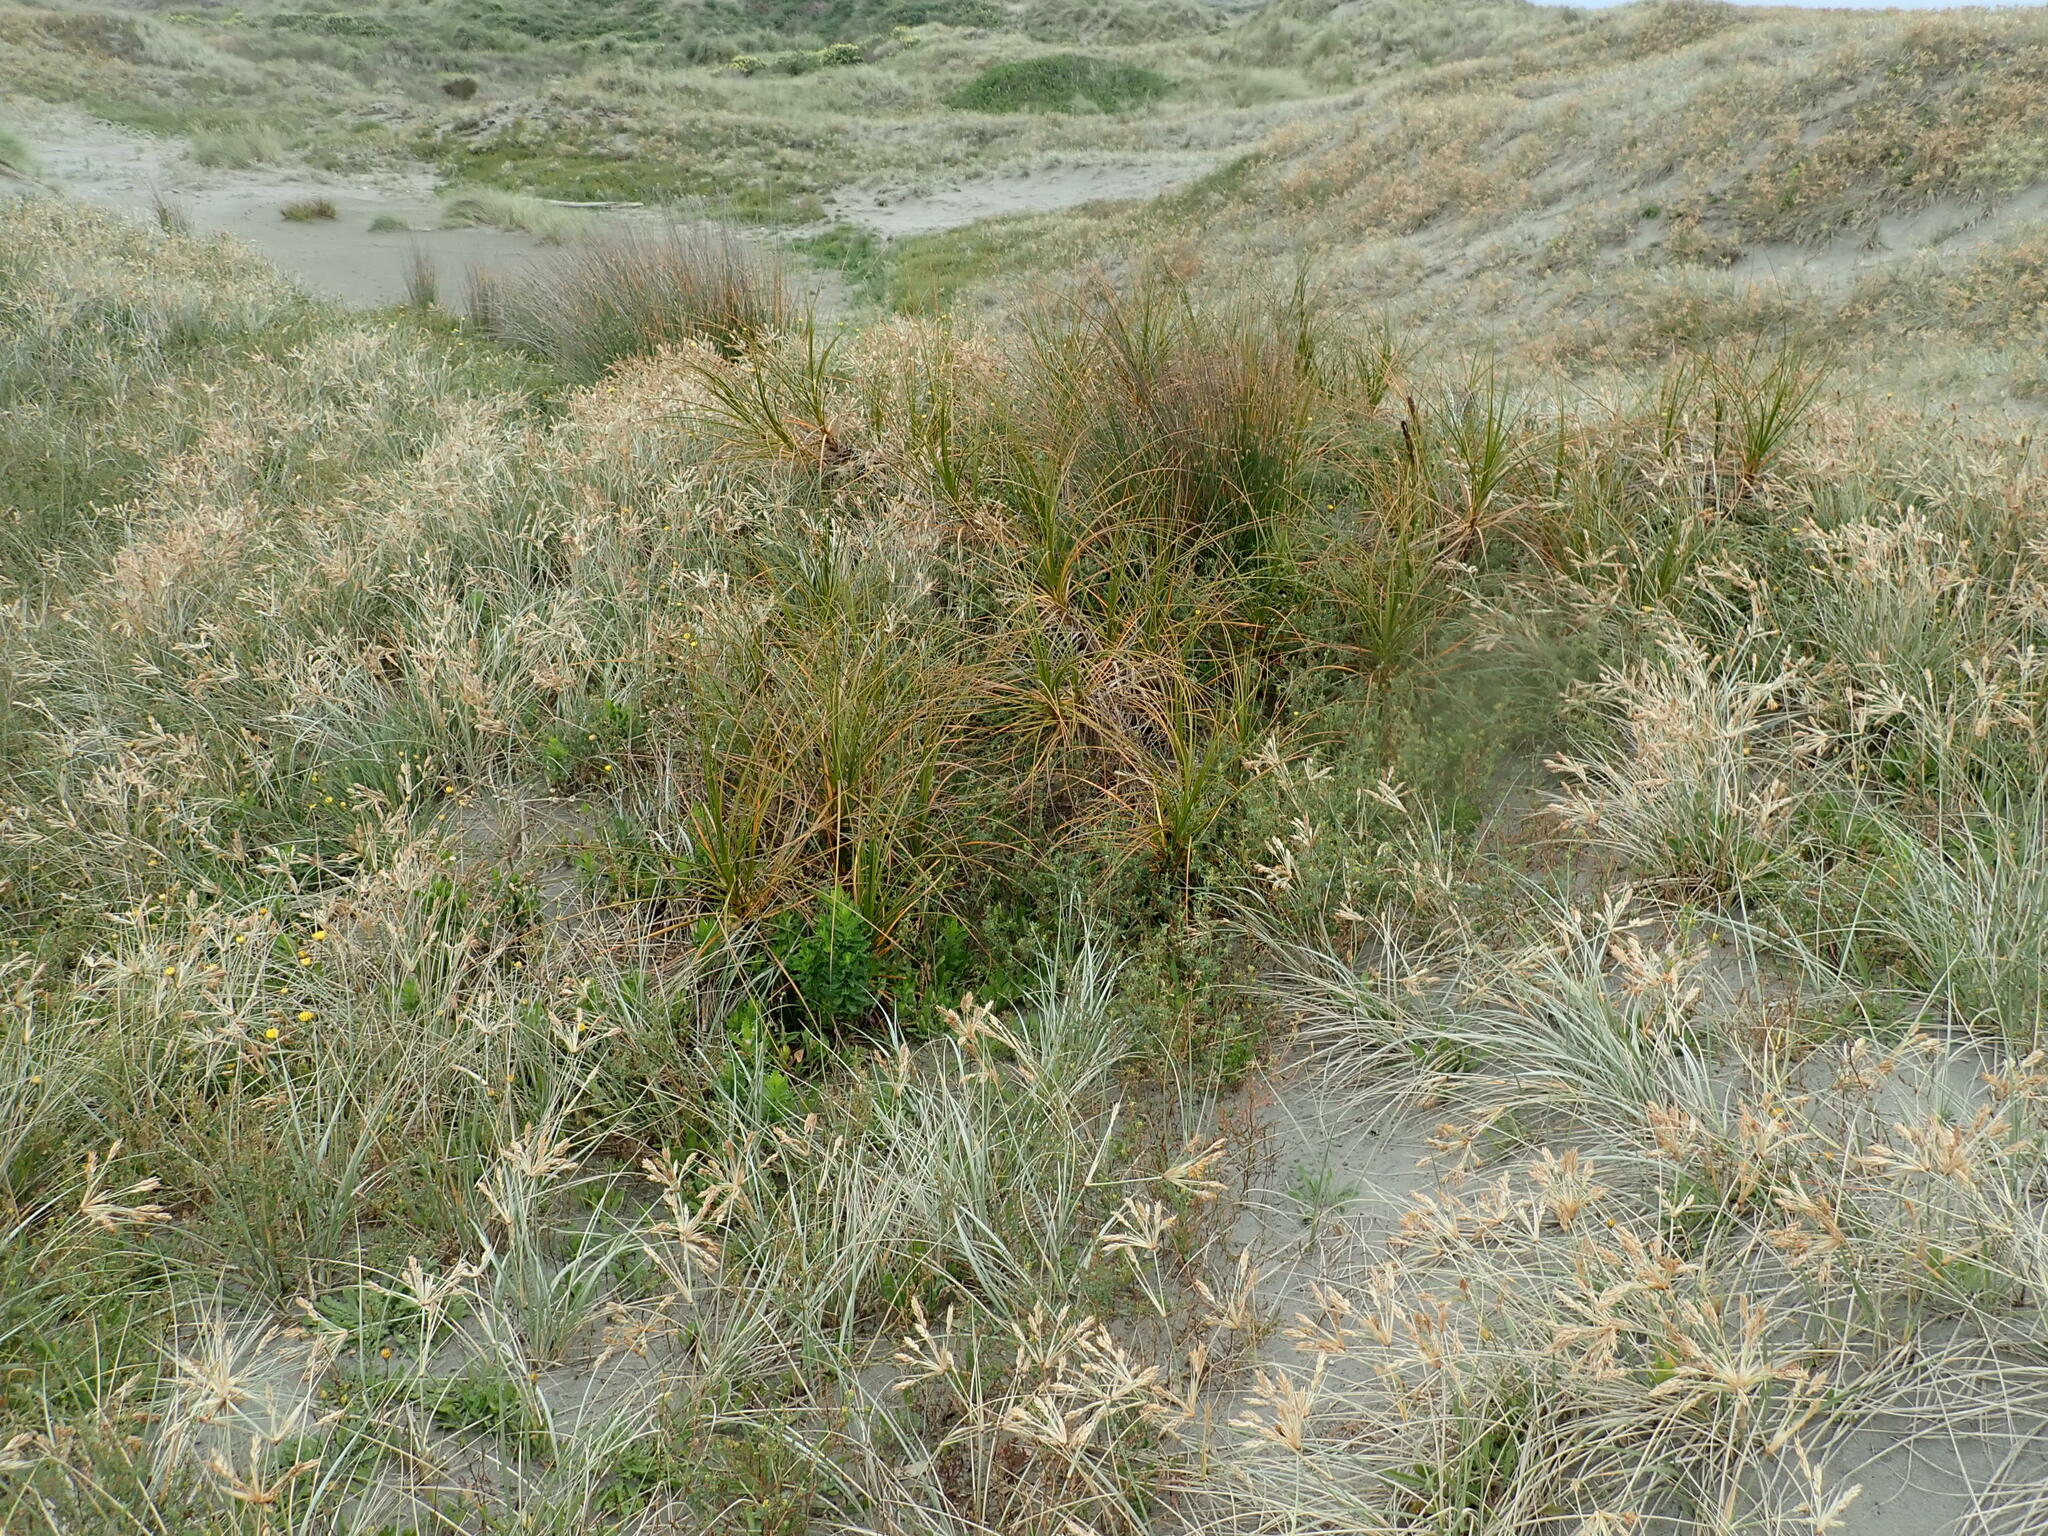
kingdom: Plantae
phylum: Tracheophyta
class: Liliopsida
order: Poales
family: Cyperaceae
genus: Ficinia
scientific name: Ficinia spiralis
